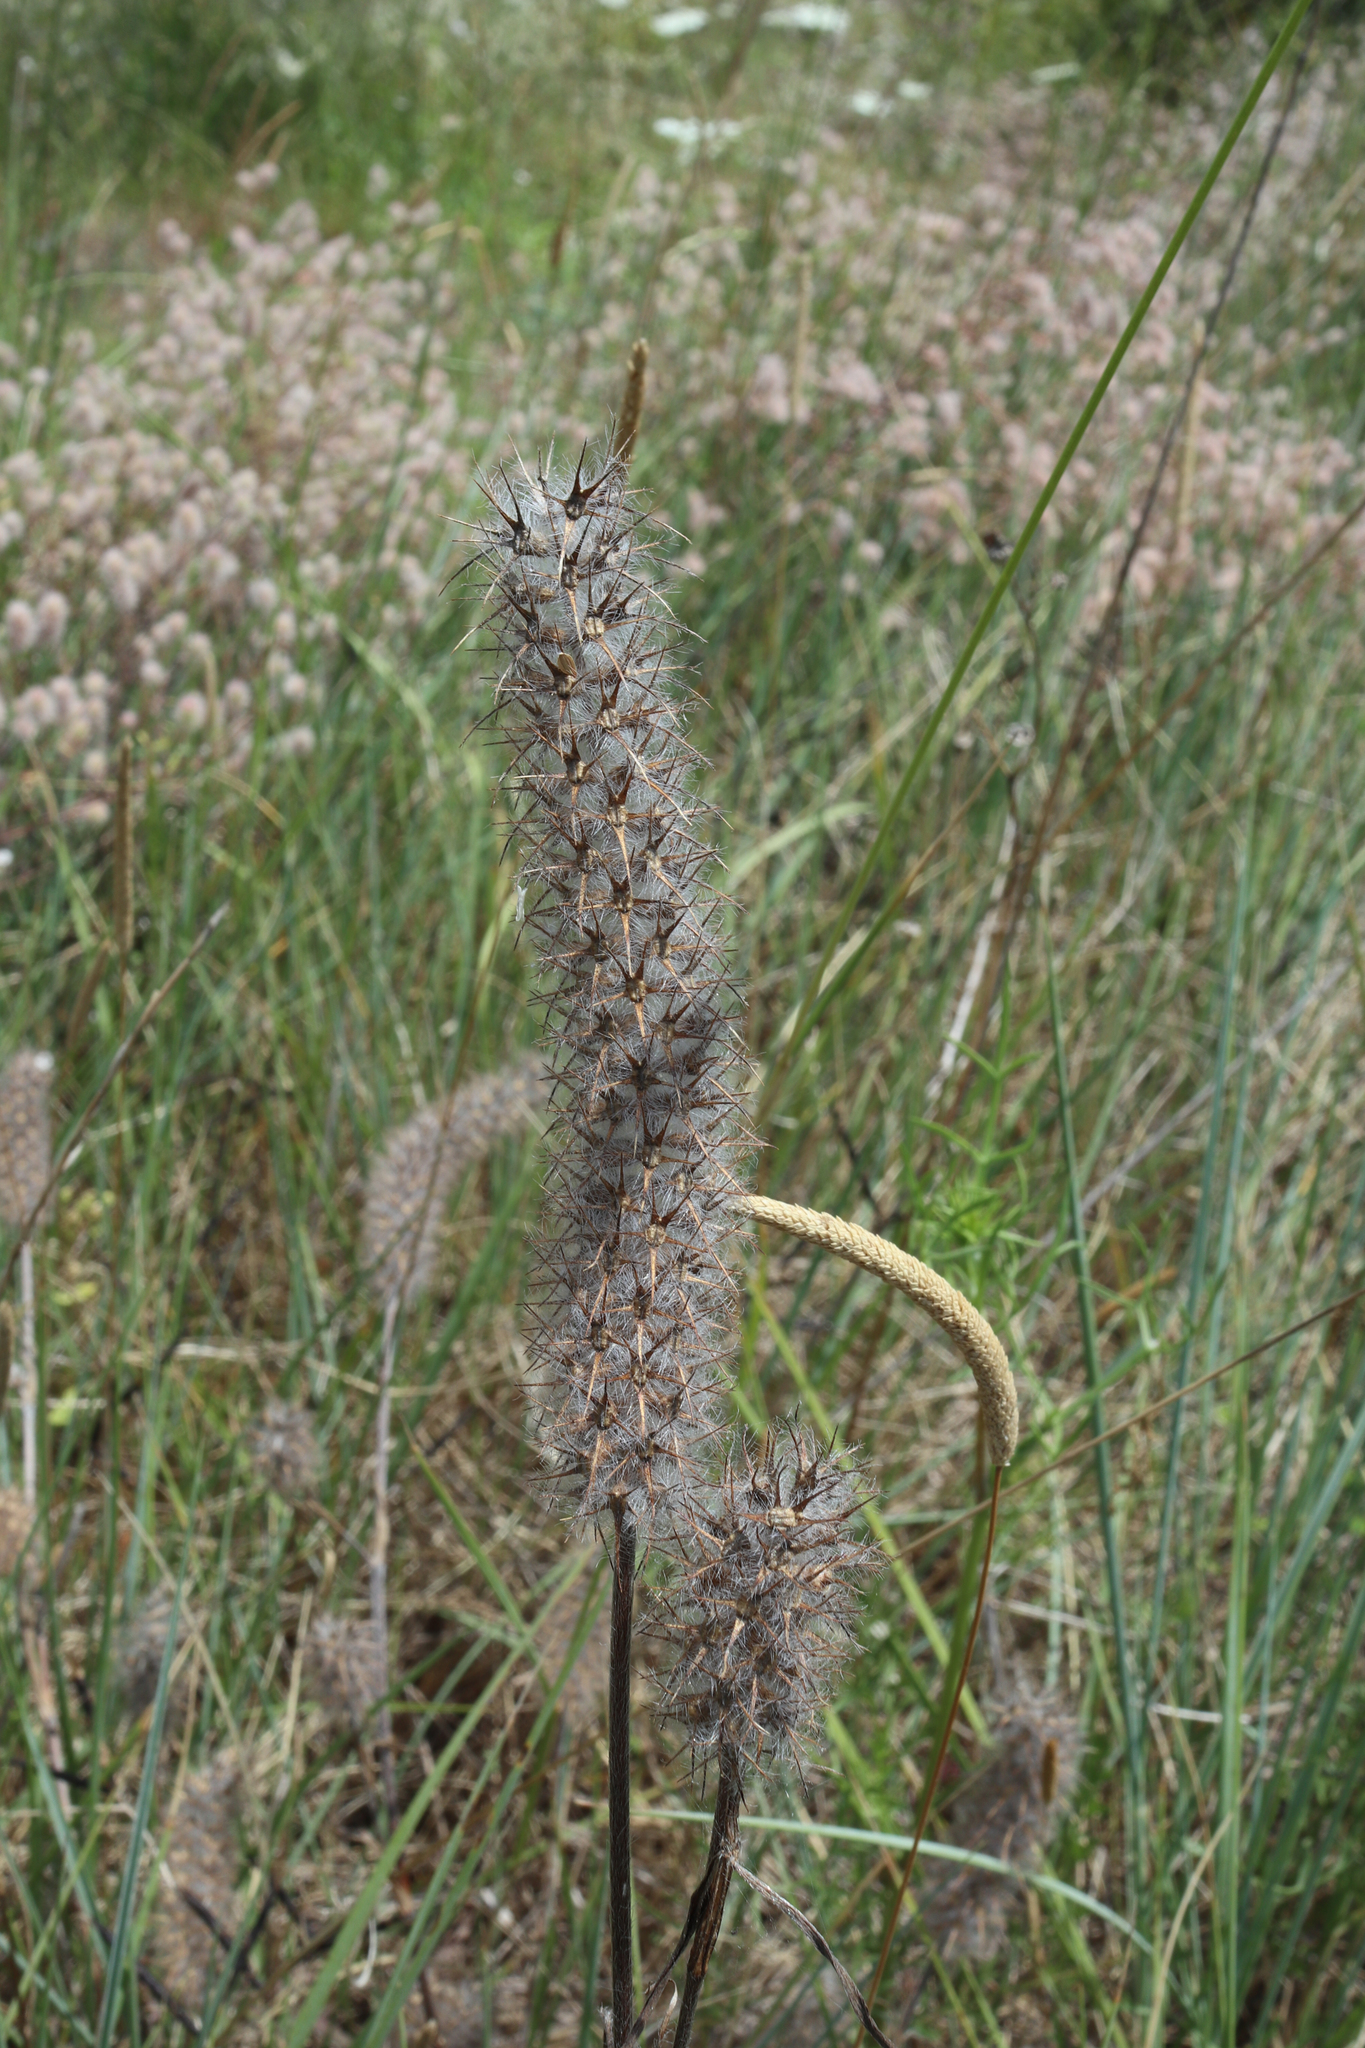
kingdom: Plantae
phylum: Tracheophyta
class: Magnoliopsida
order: Fabales
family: Fabaceae
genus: Trifolium
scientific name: Trifolium arvense
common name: Hare's-foot clover
